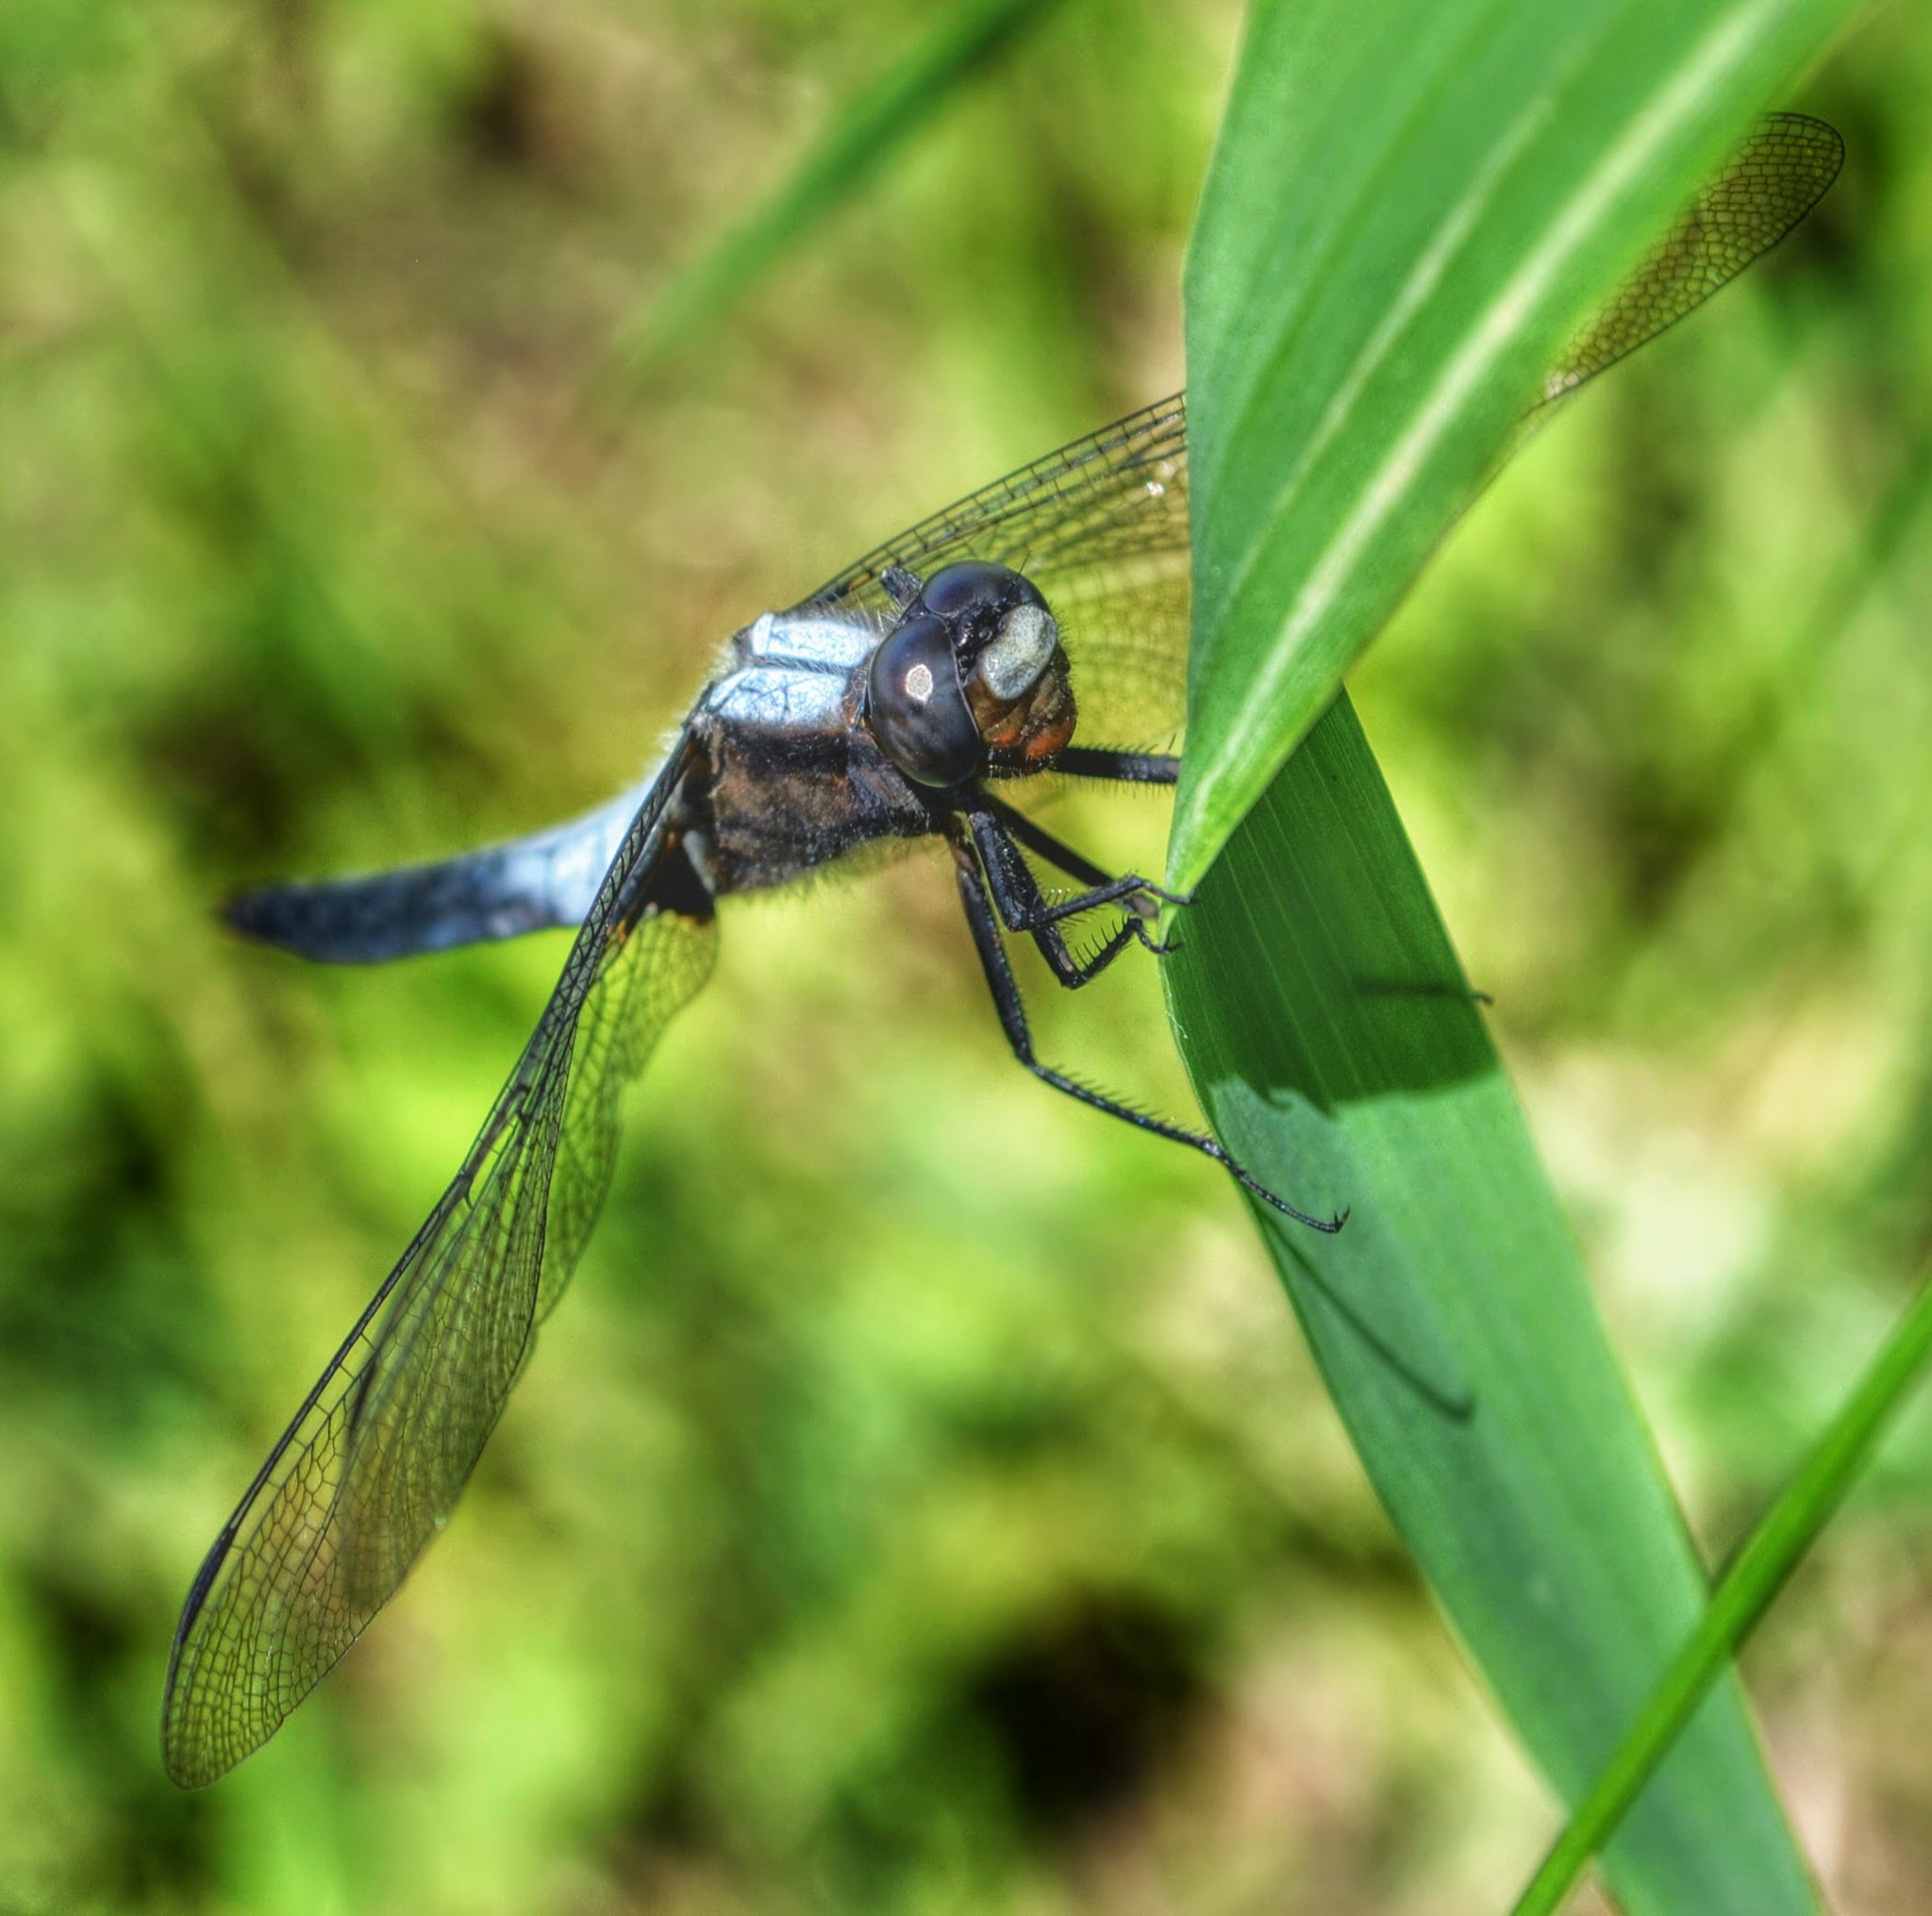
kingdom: Animalia
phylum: Arthropoda
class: Insecta
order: Odonata
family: Libellulidae
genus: Ladona
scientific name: Ladona julia
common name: Chalk-fronted corporal
